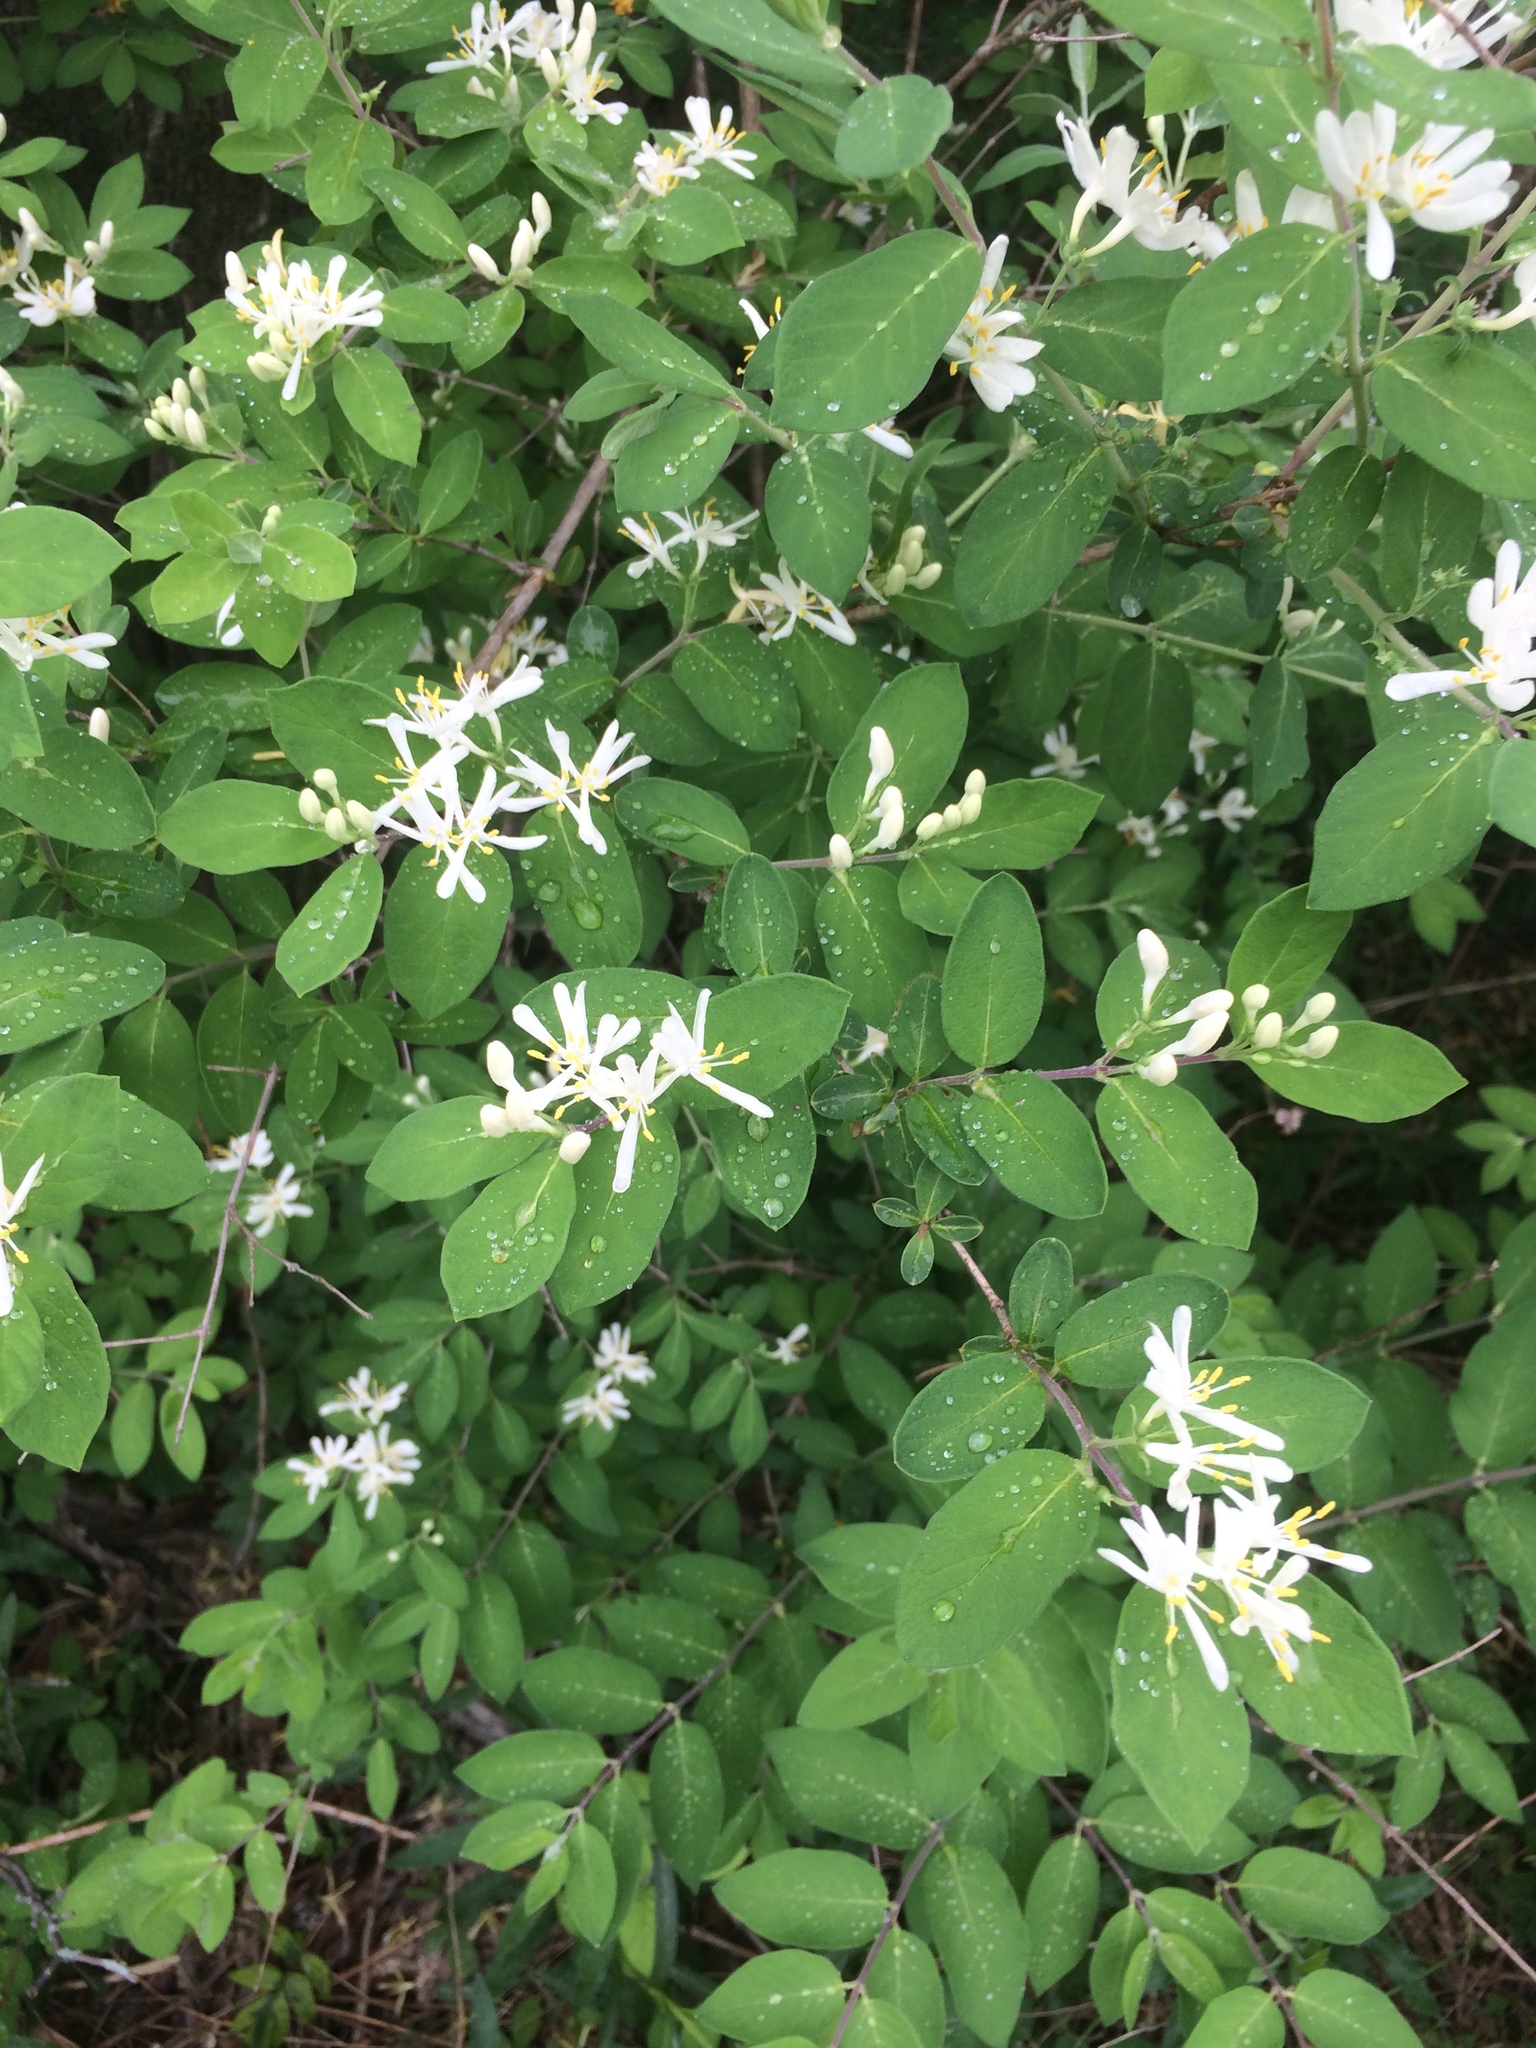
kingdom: Plantae
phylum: Tracheophyta
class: Magnoliopsida
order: Dipsacales
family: Caprifoliaceae
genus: Lonicera
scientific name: Lonicera bella
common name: Bell's honeysuckle
